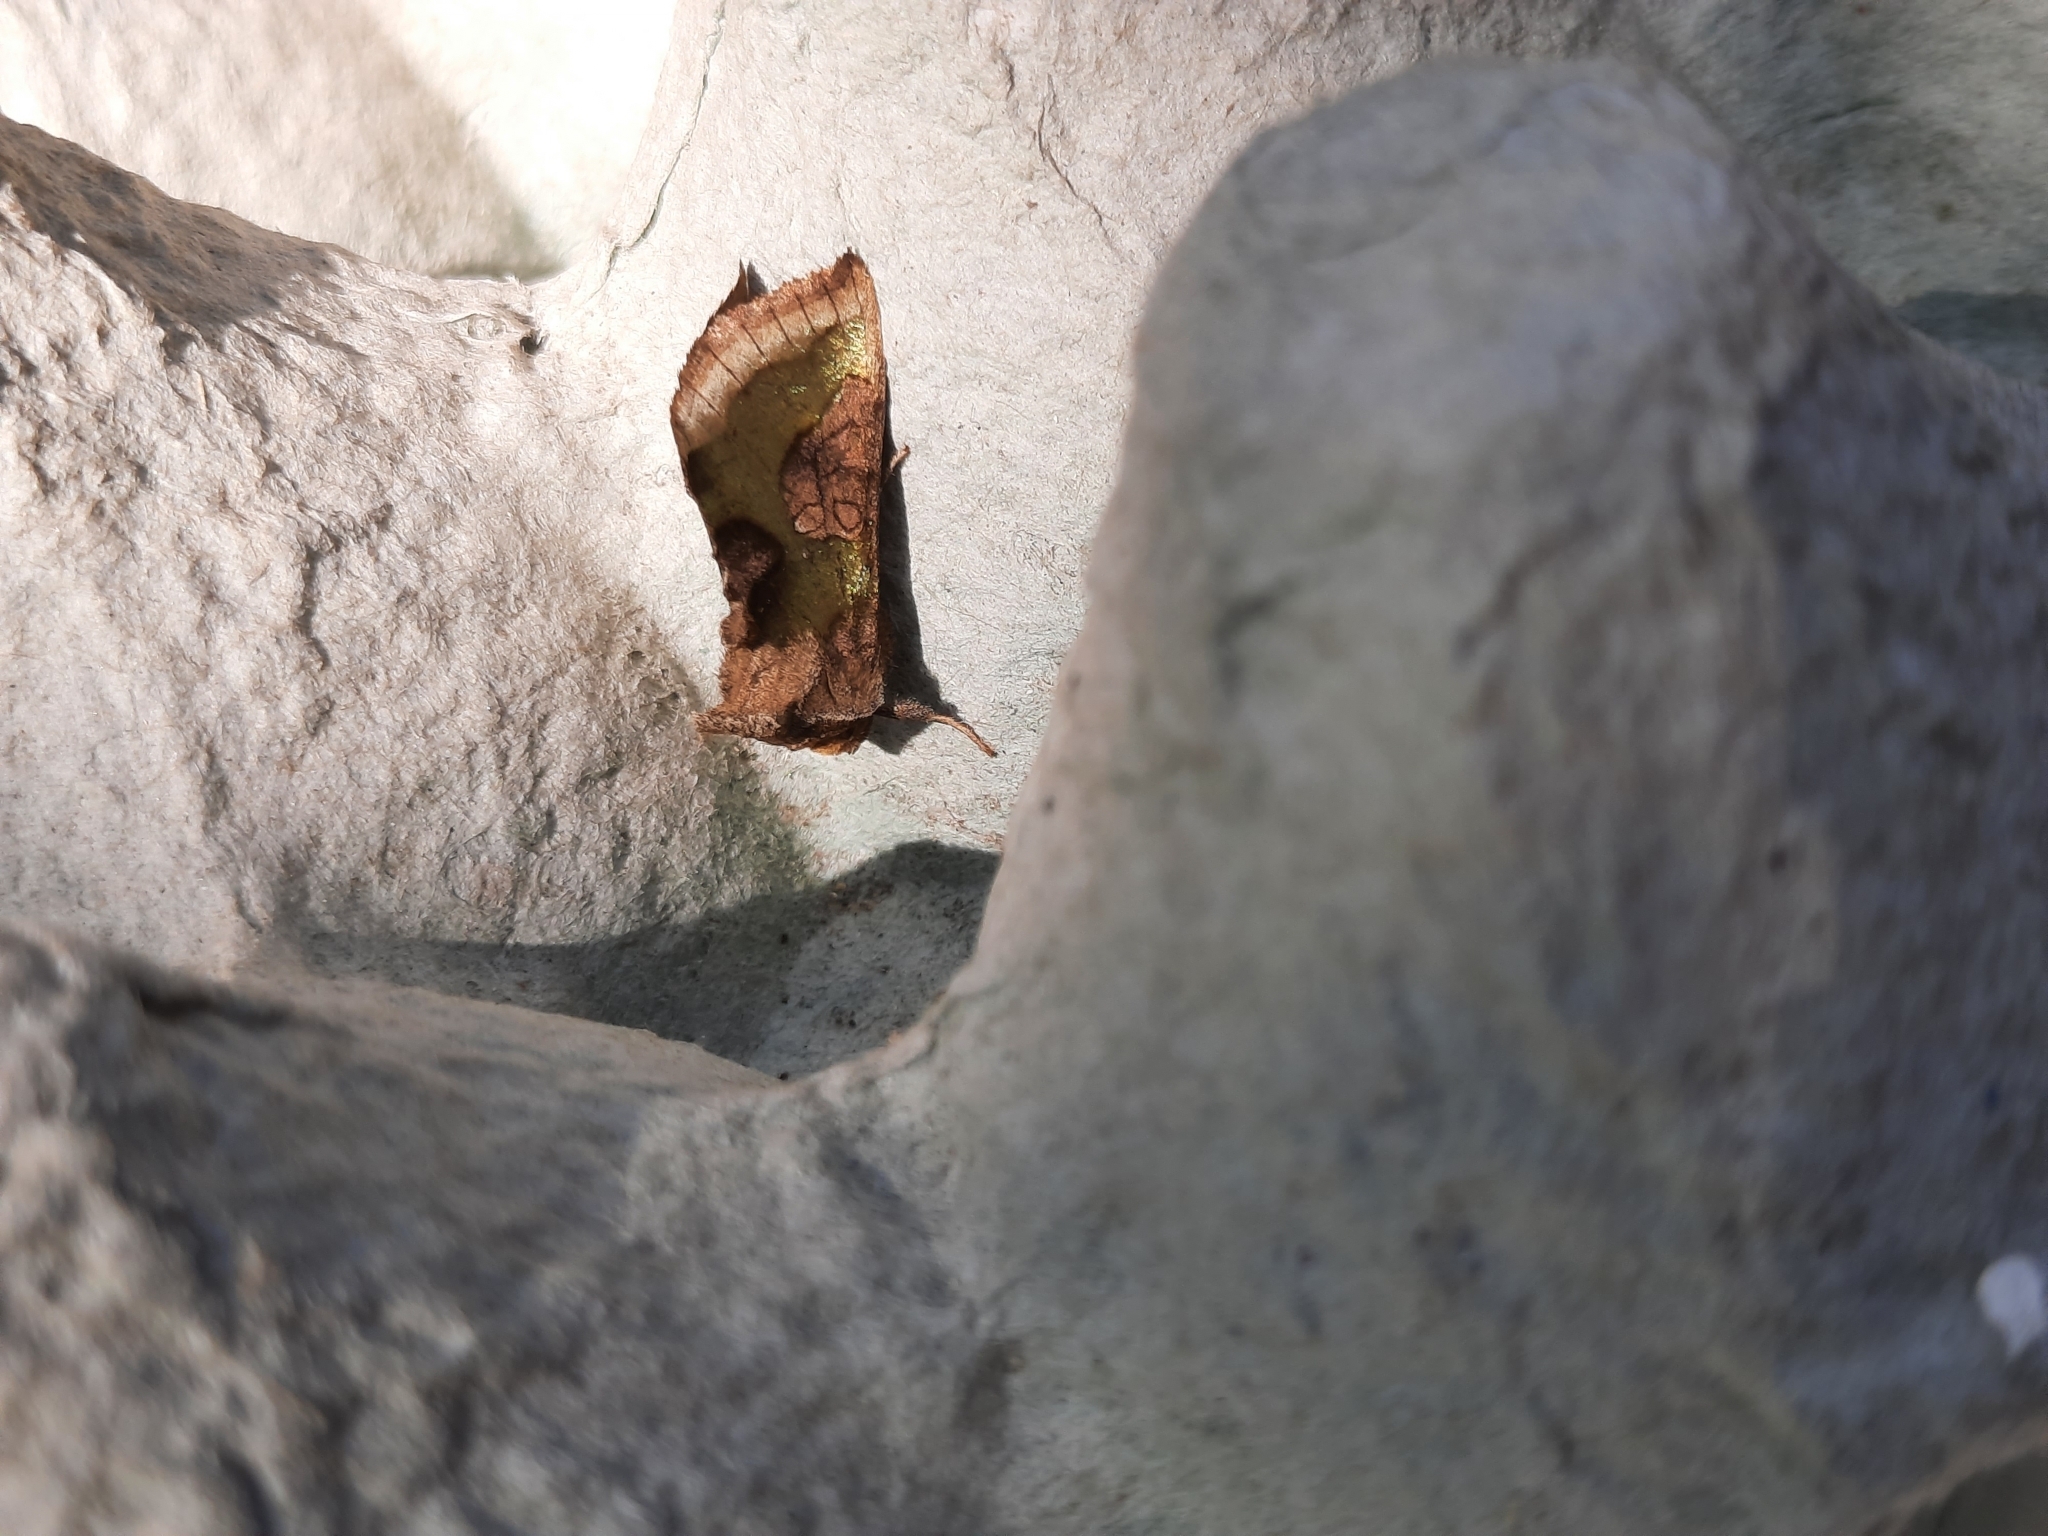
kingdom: Animalia
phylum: Arthropoda
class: Insecta
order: Lepidoptera
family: Noctuidae
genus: Diachrysia
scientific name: Diachrysia chrysitis
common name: Burnished brass
